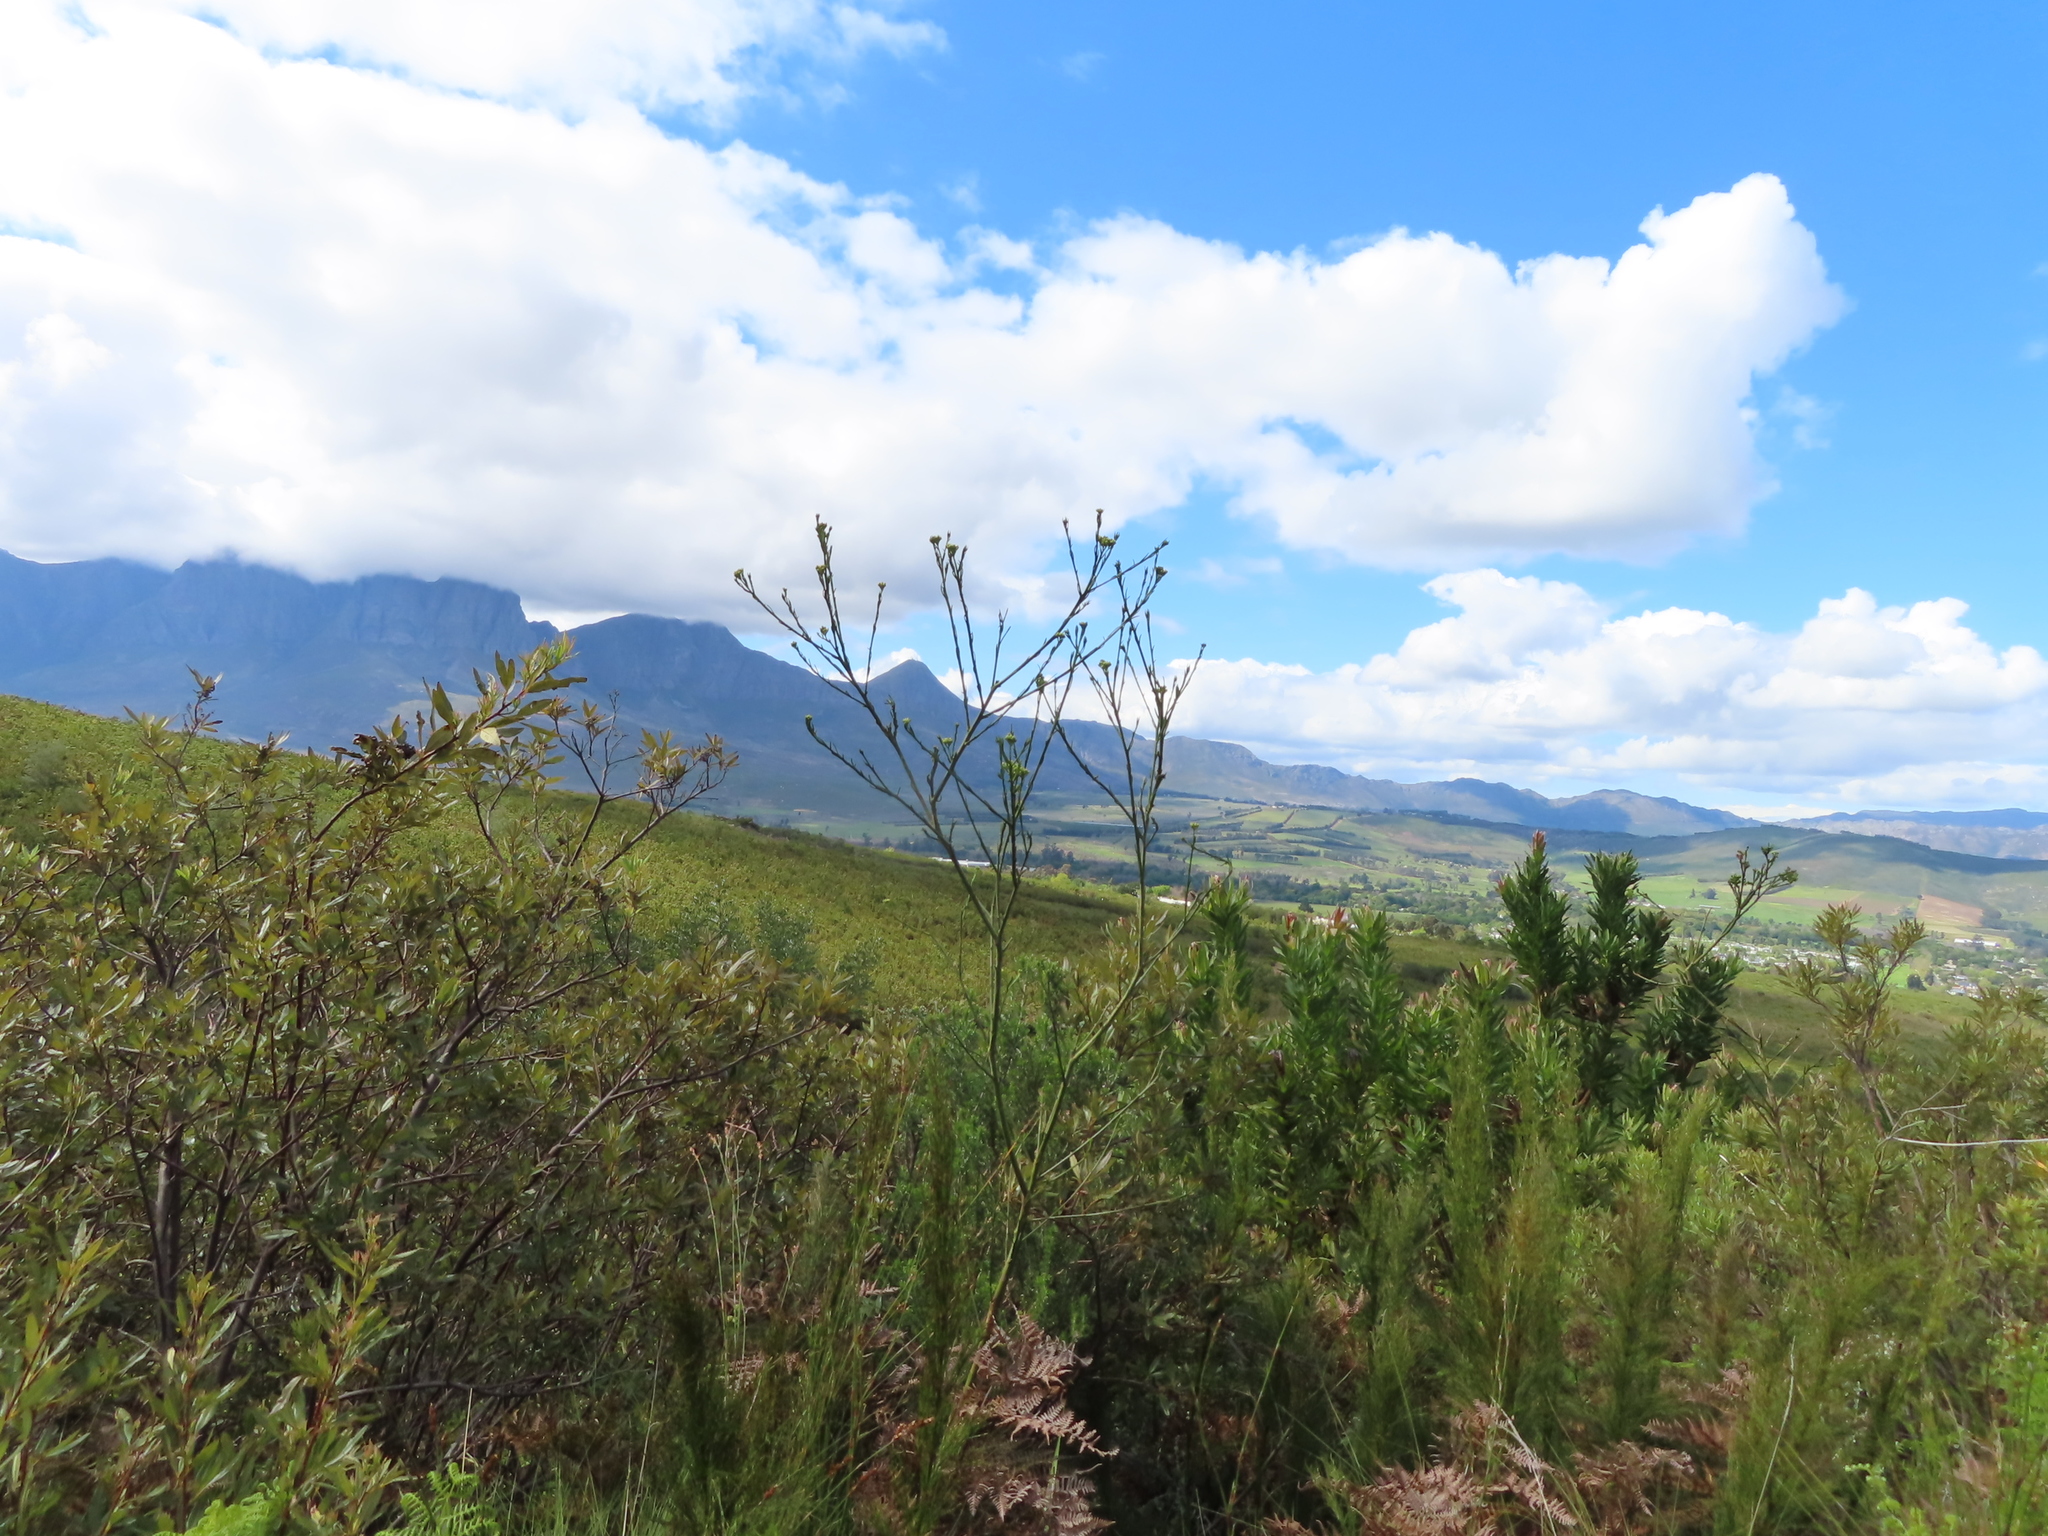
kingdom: Plantae
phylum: Tracheophyta
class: Magnoliopsida
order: Santalales
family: Thesiaceae
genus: Thesium
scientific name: Thesium strictum
